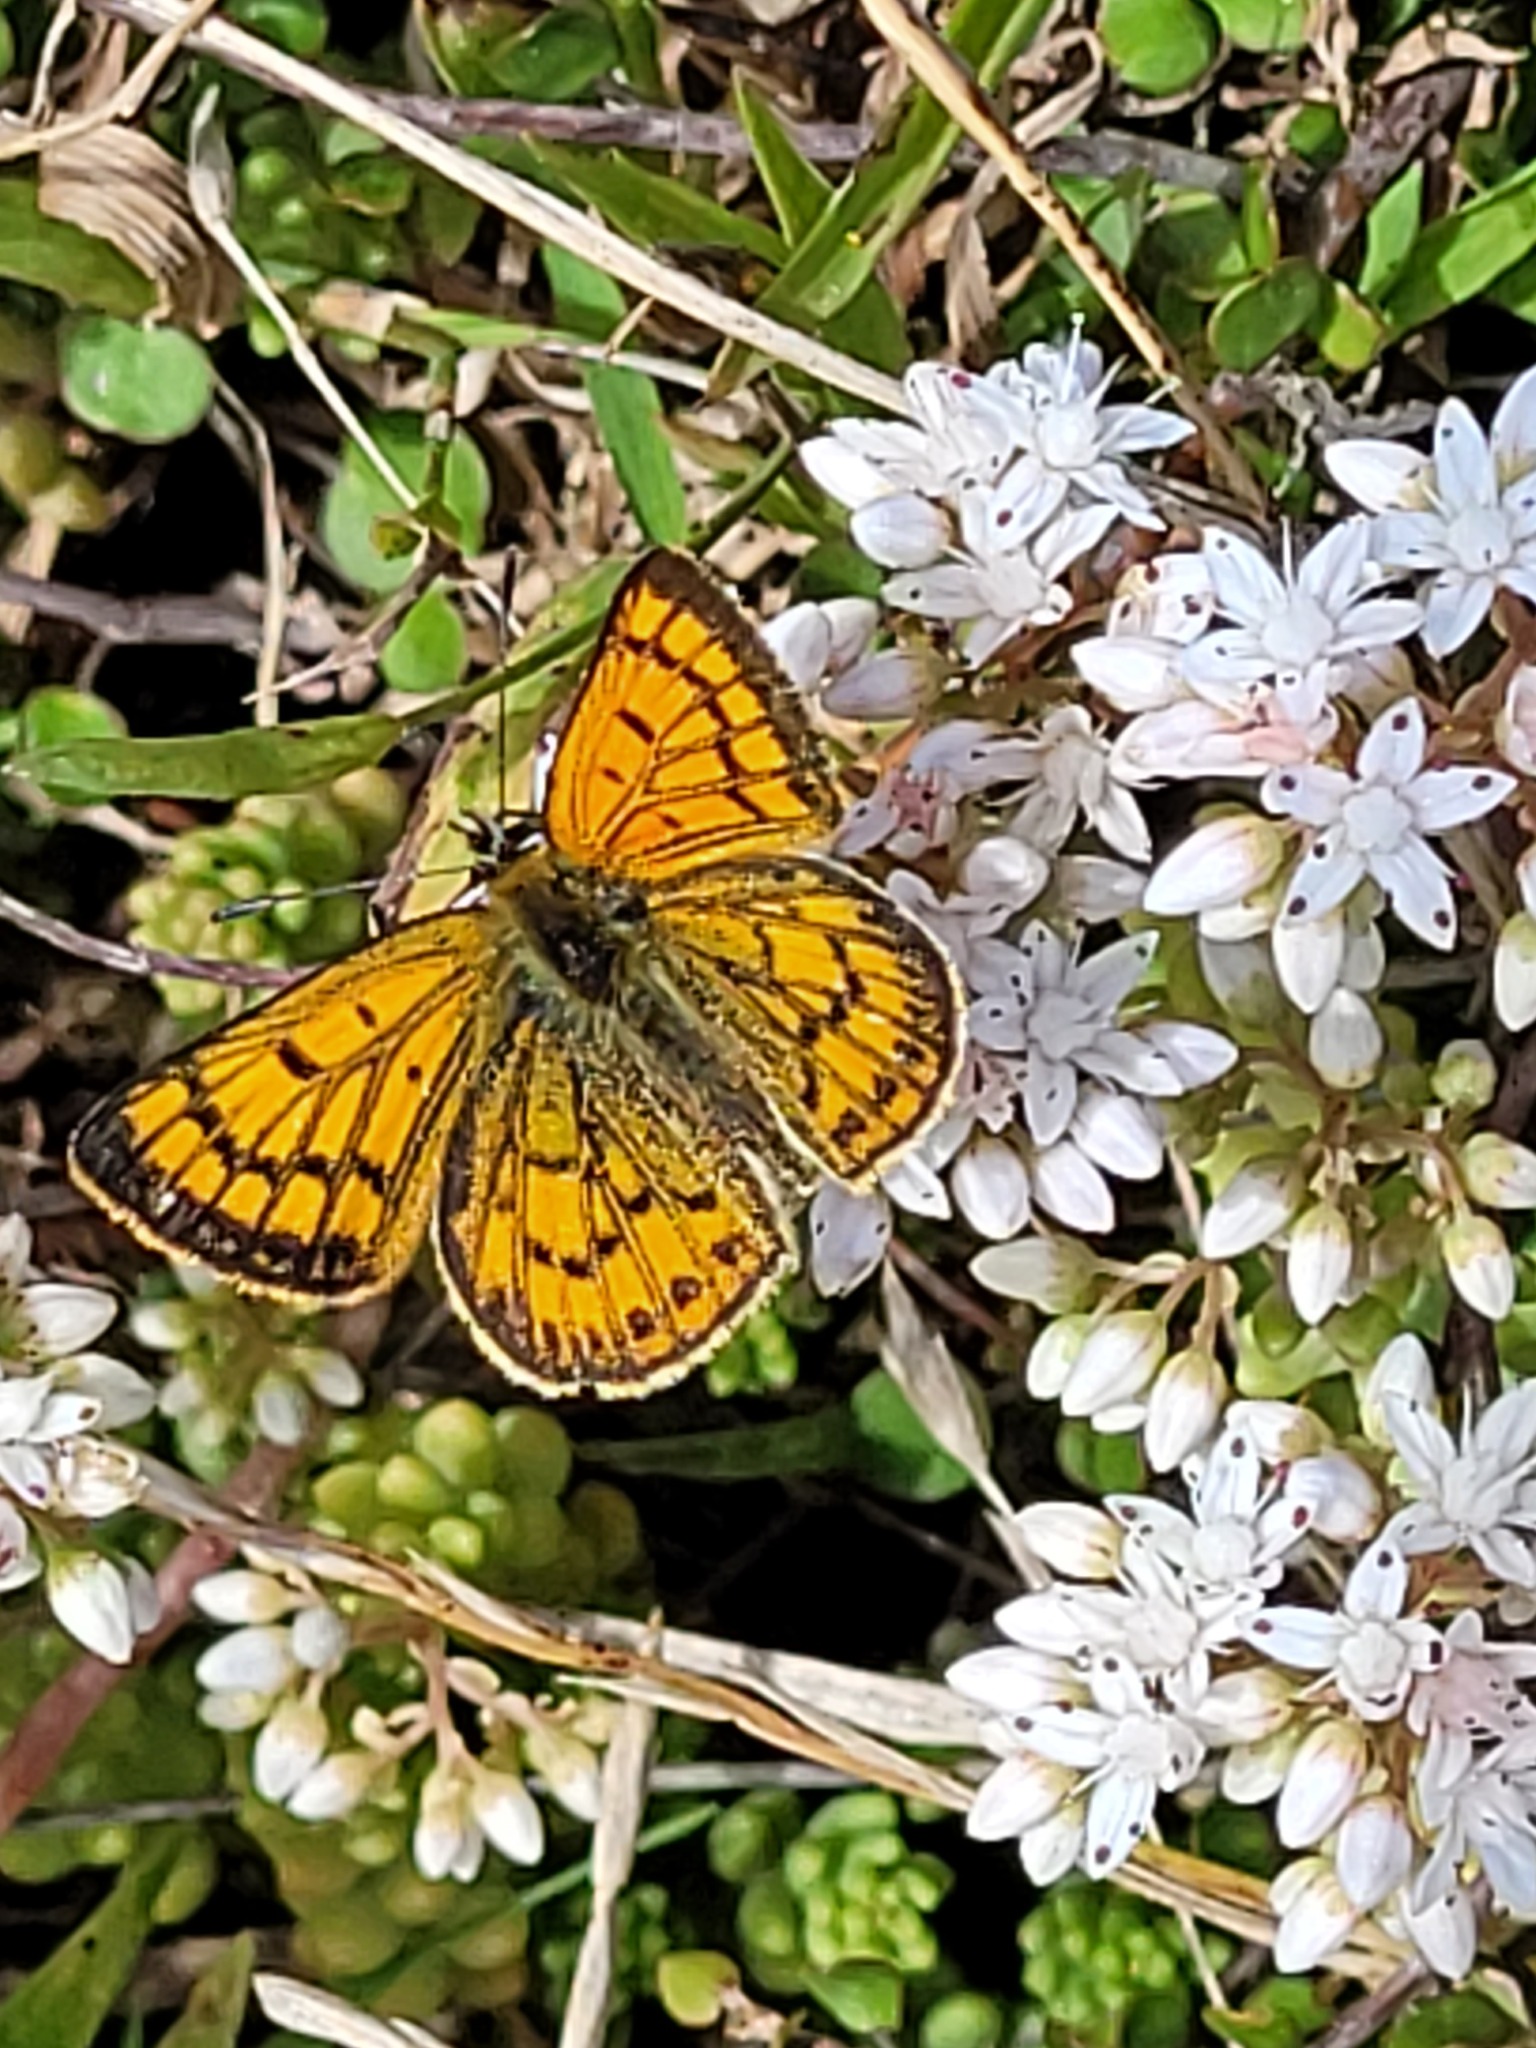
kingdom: Animalia
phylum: Arthropoda
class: Insecta
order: Lepidoptera
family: Lycaenidae
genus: Lycaena
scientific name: Lycaena salustius
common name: North island coastal copper
